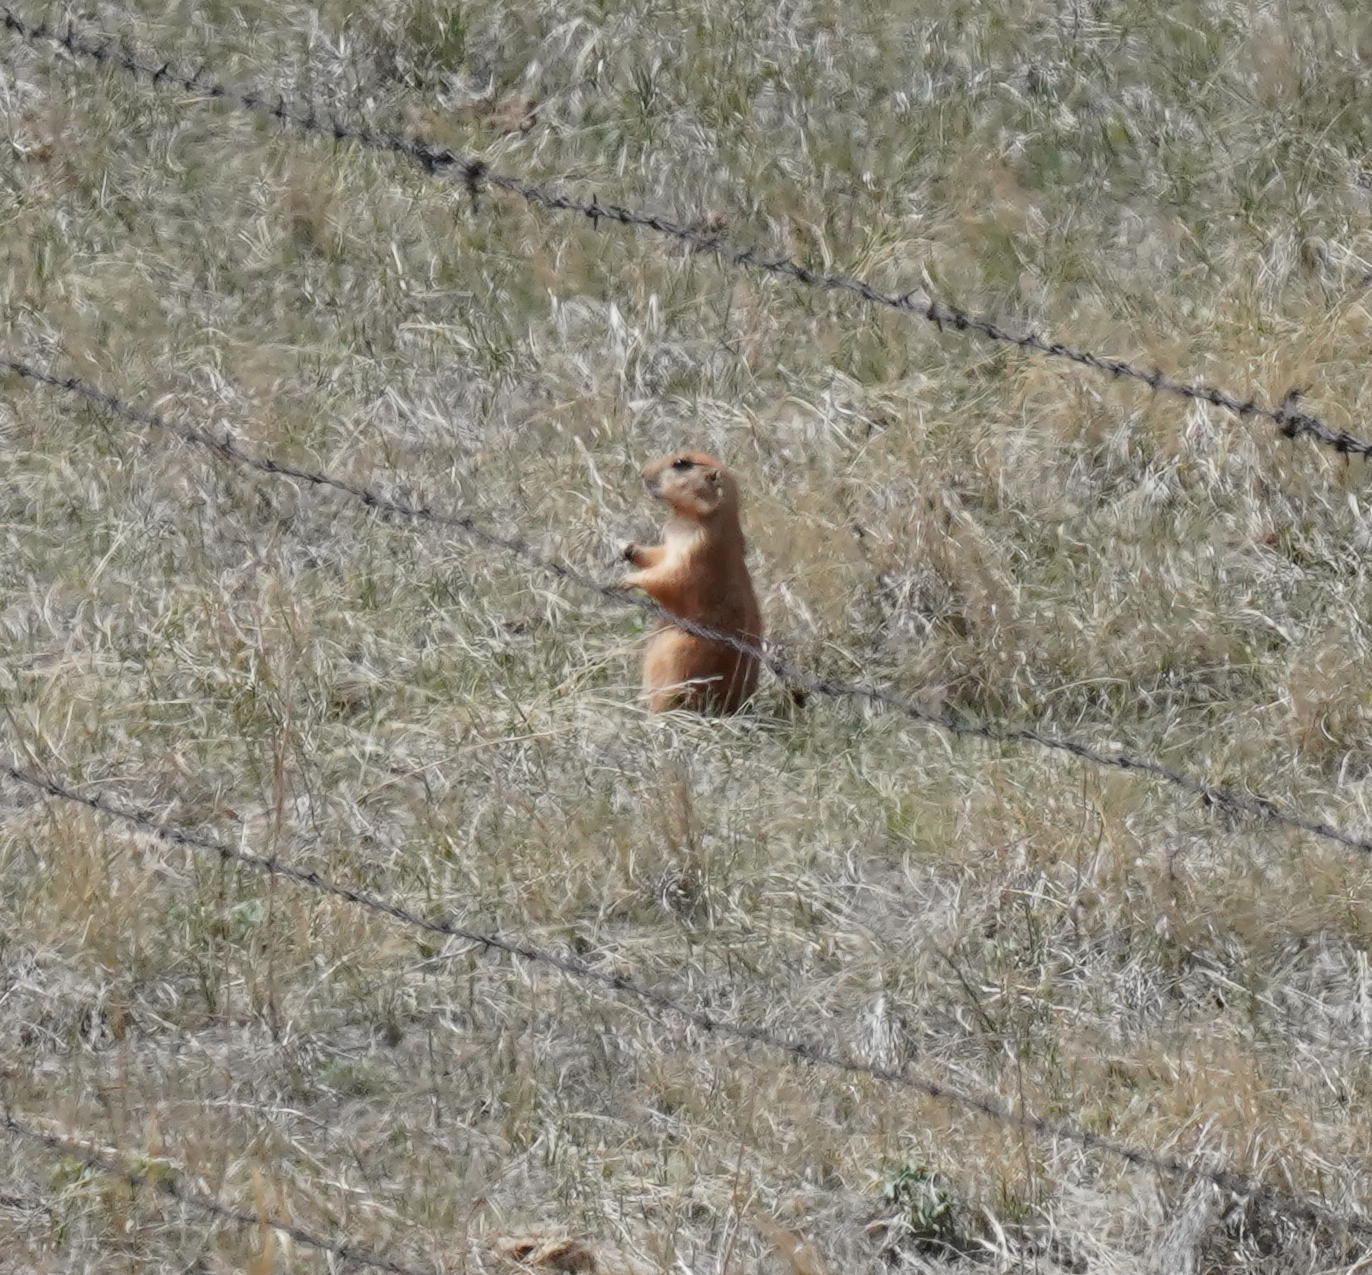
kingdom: Animalia
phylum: Chordata
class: Mammalia
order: Rodentia
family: Sciuridae
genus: Cynomys
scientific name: Cynomys ludovicianus
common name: Black-tailed prairie dog
